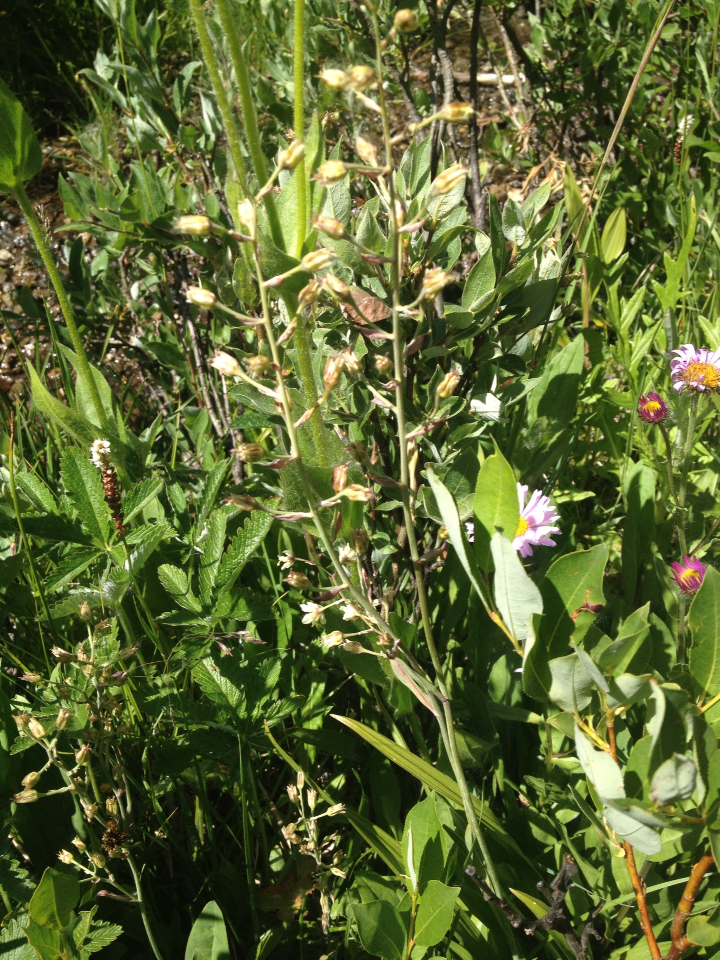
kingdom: Plantae
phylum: Tracheophyta
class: Liliopsida
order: Liliales
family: Melanthiaceae
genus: Anticlea
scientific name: Anticlea elegans
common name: Mountain death camas
